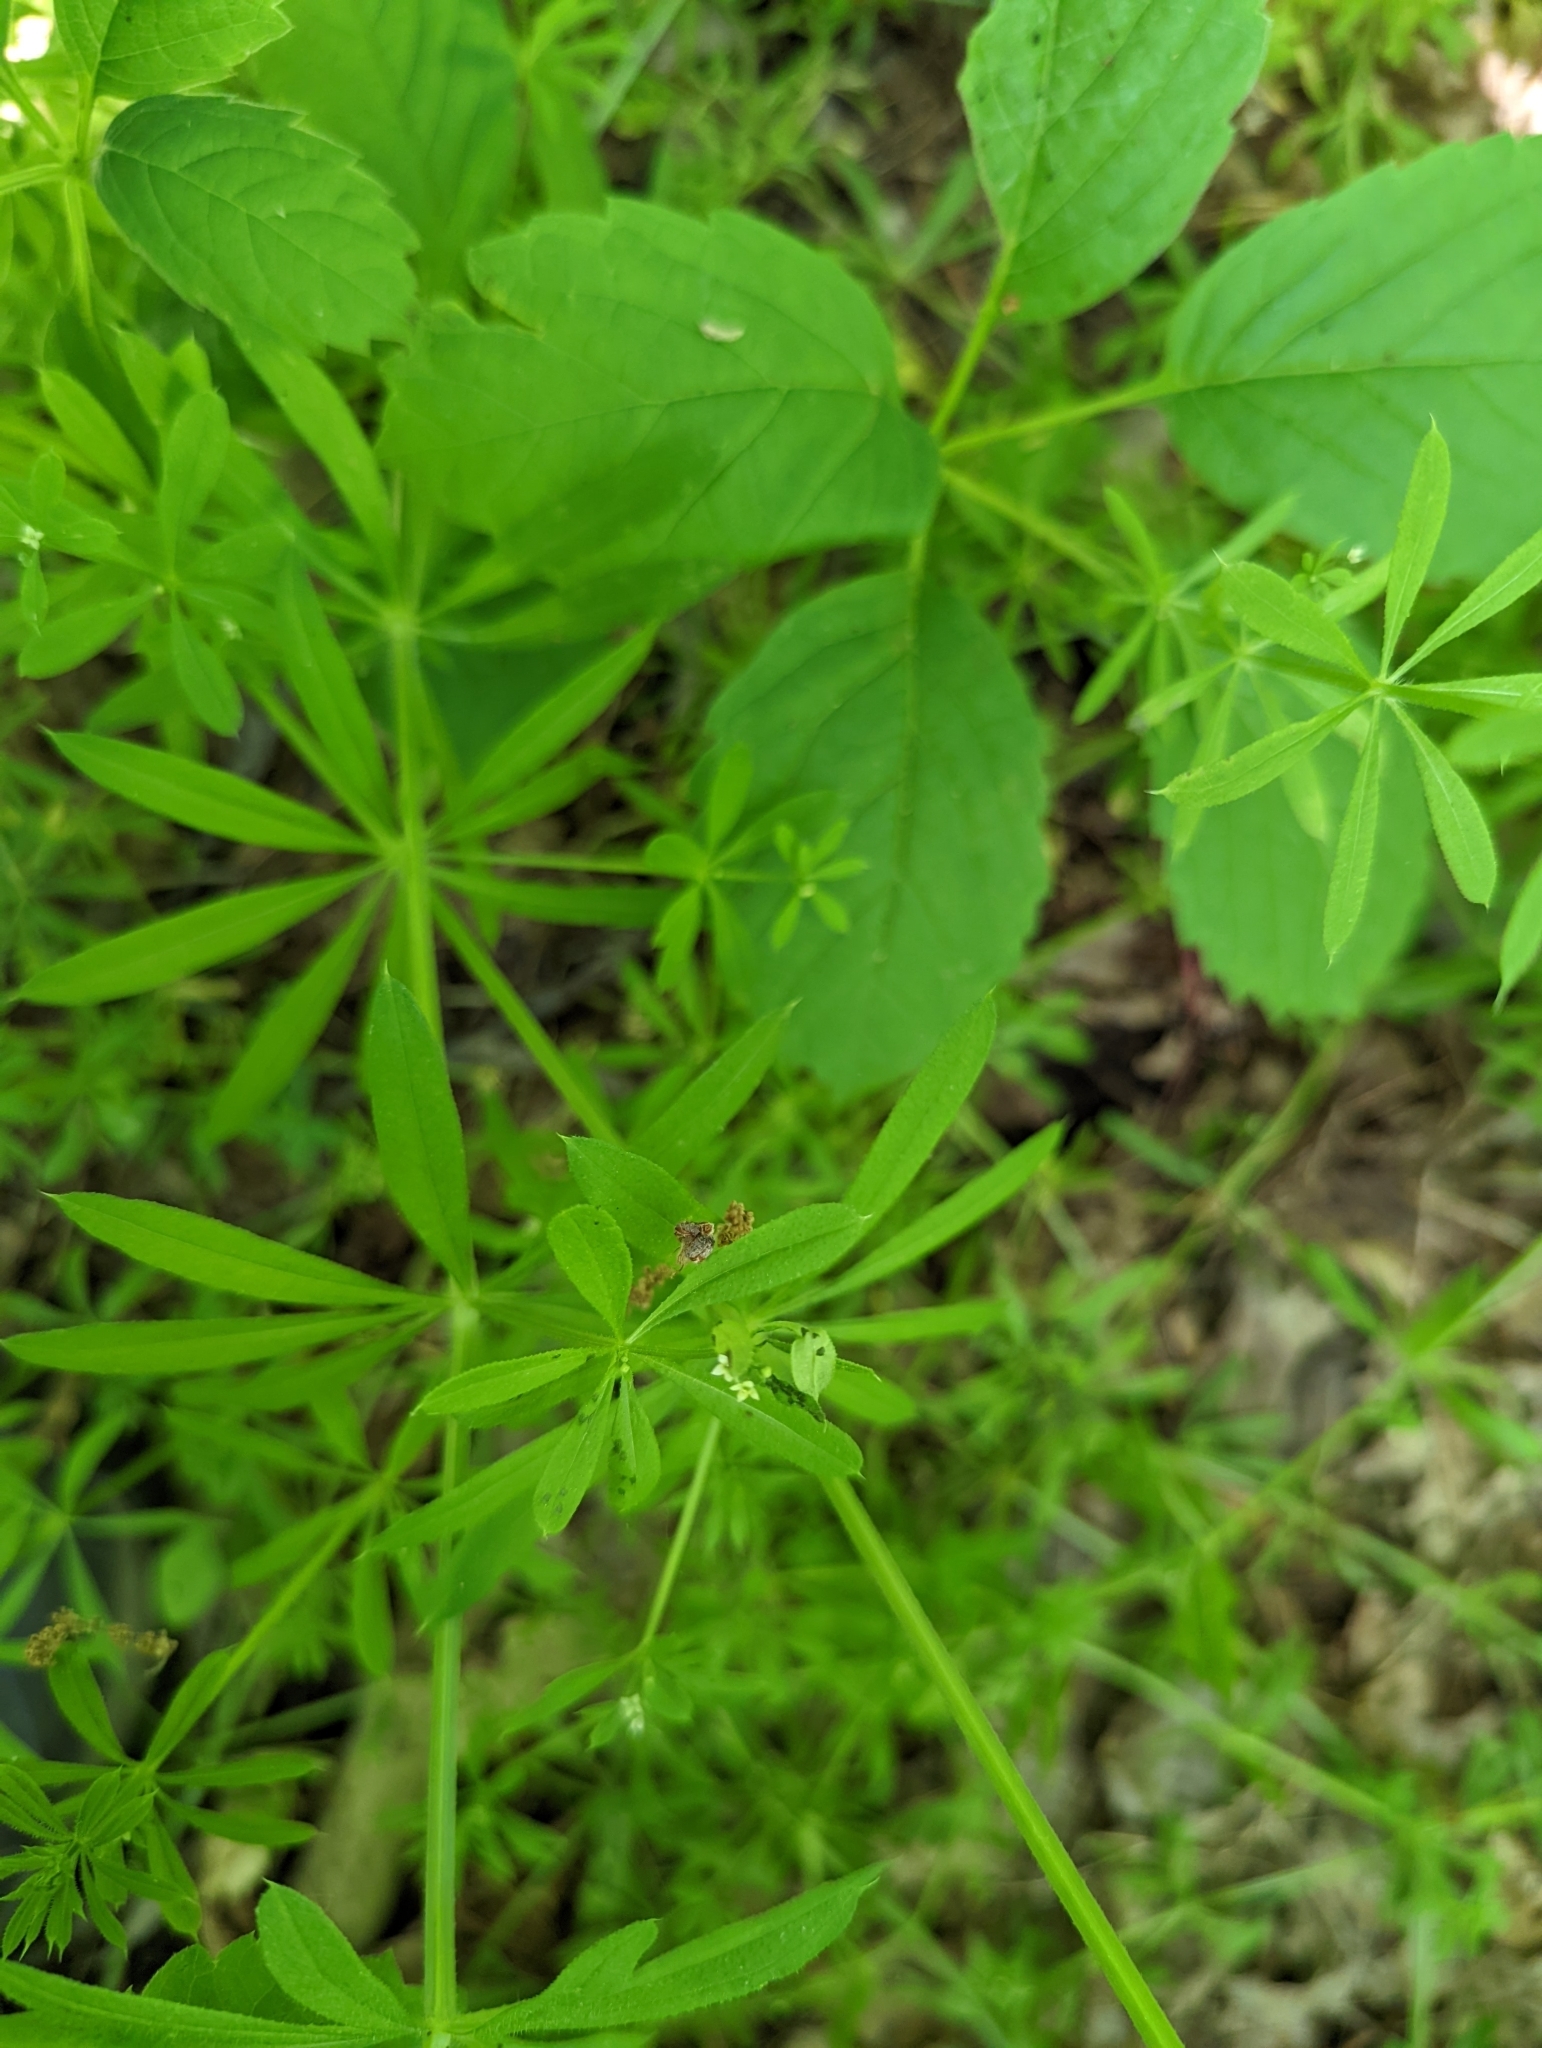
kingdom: Plantae
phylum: Tracheophyta
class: Magnoliopsida
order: Gentianales
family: Rubiaceae
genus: Galium
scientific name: Galium aparine
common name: Cleavers
